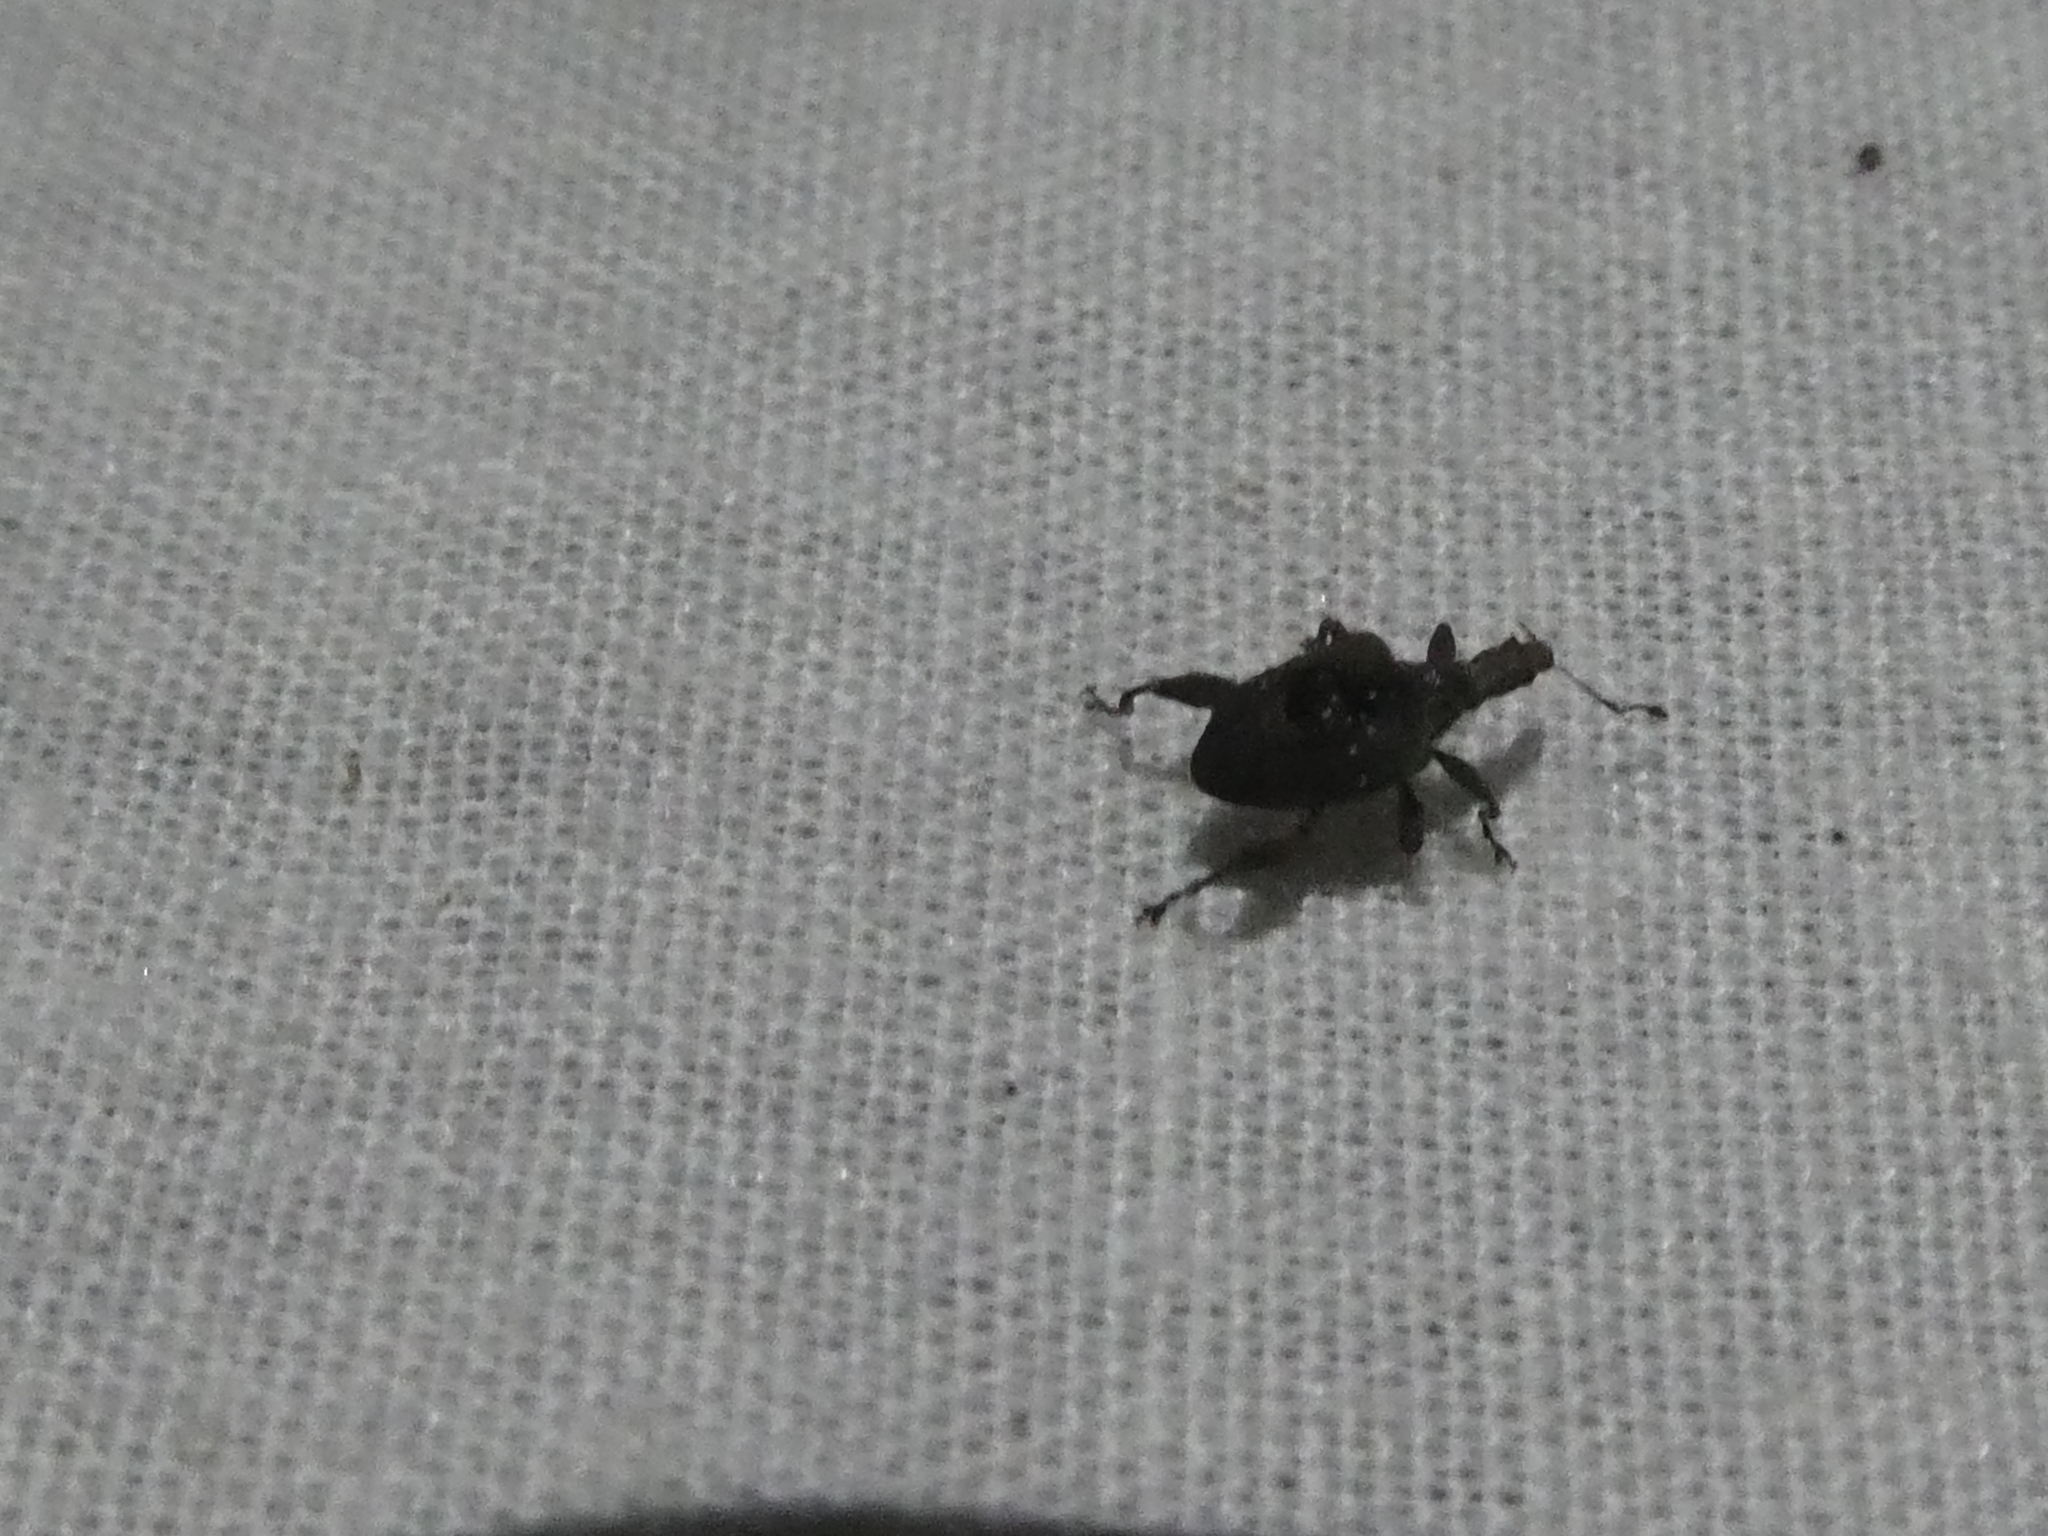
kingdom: Animalia
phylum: Arthropoda
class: Insecta
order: Coleoptera
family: Curculionidae
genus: Stephanorrhynchus
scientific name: Stephanorrhynchus crassus
